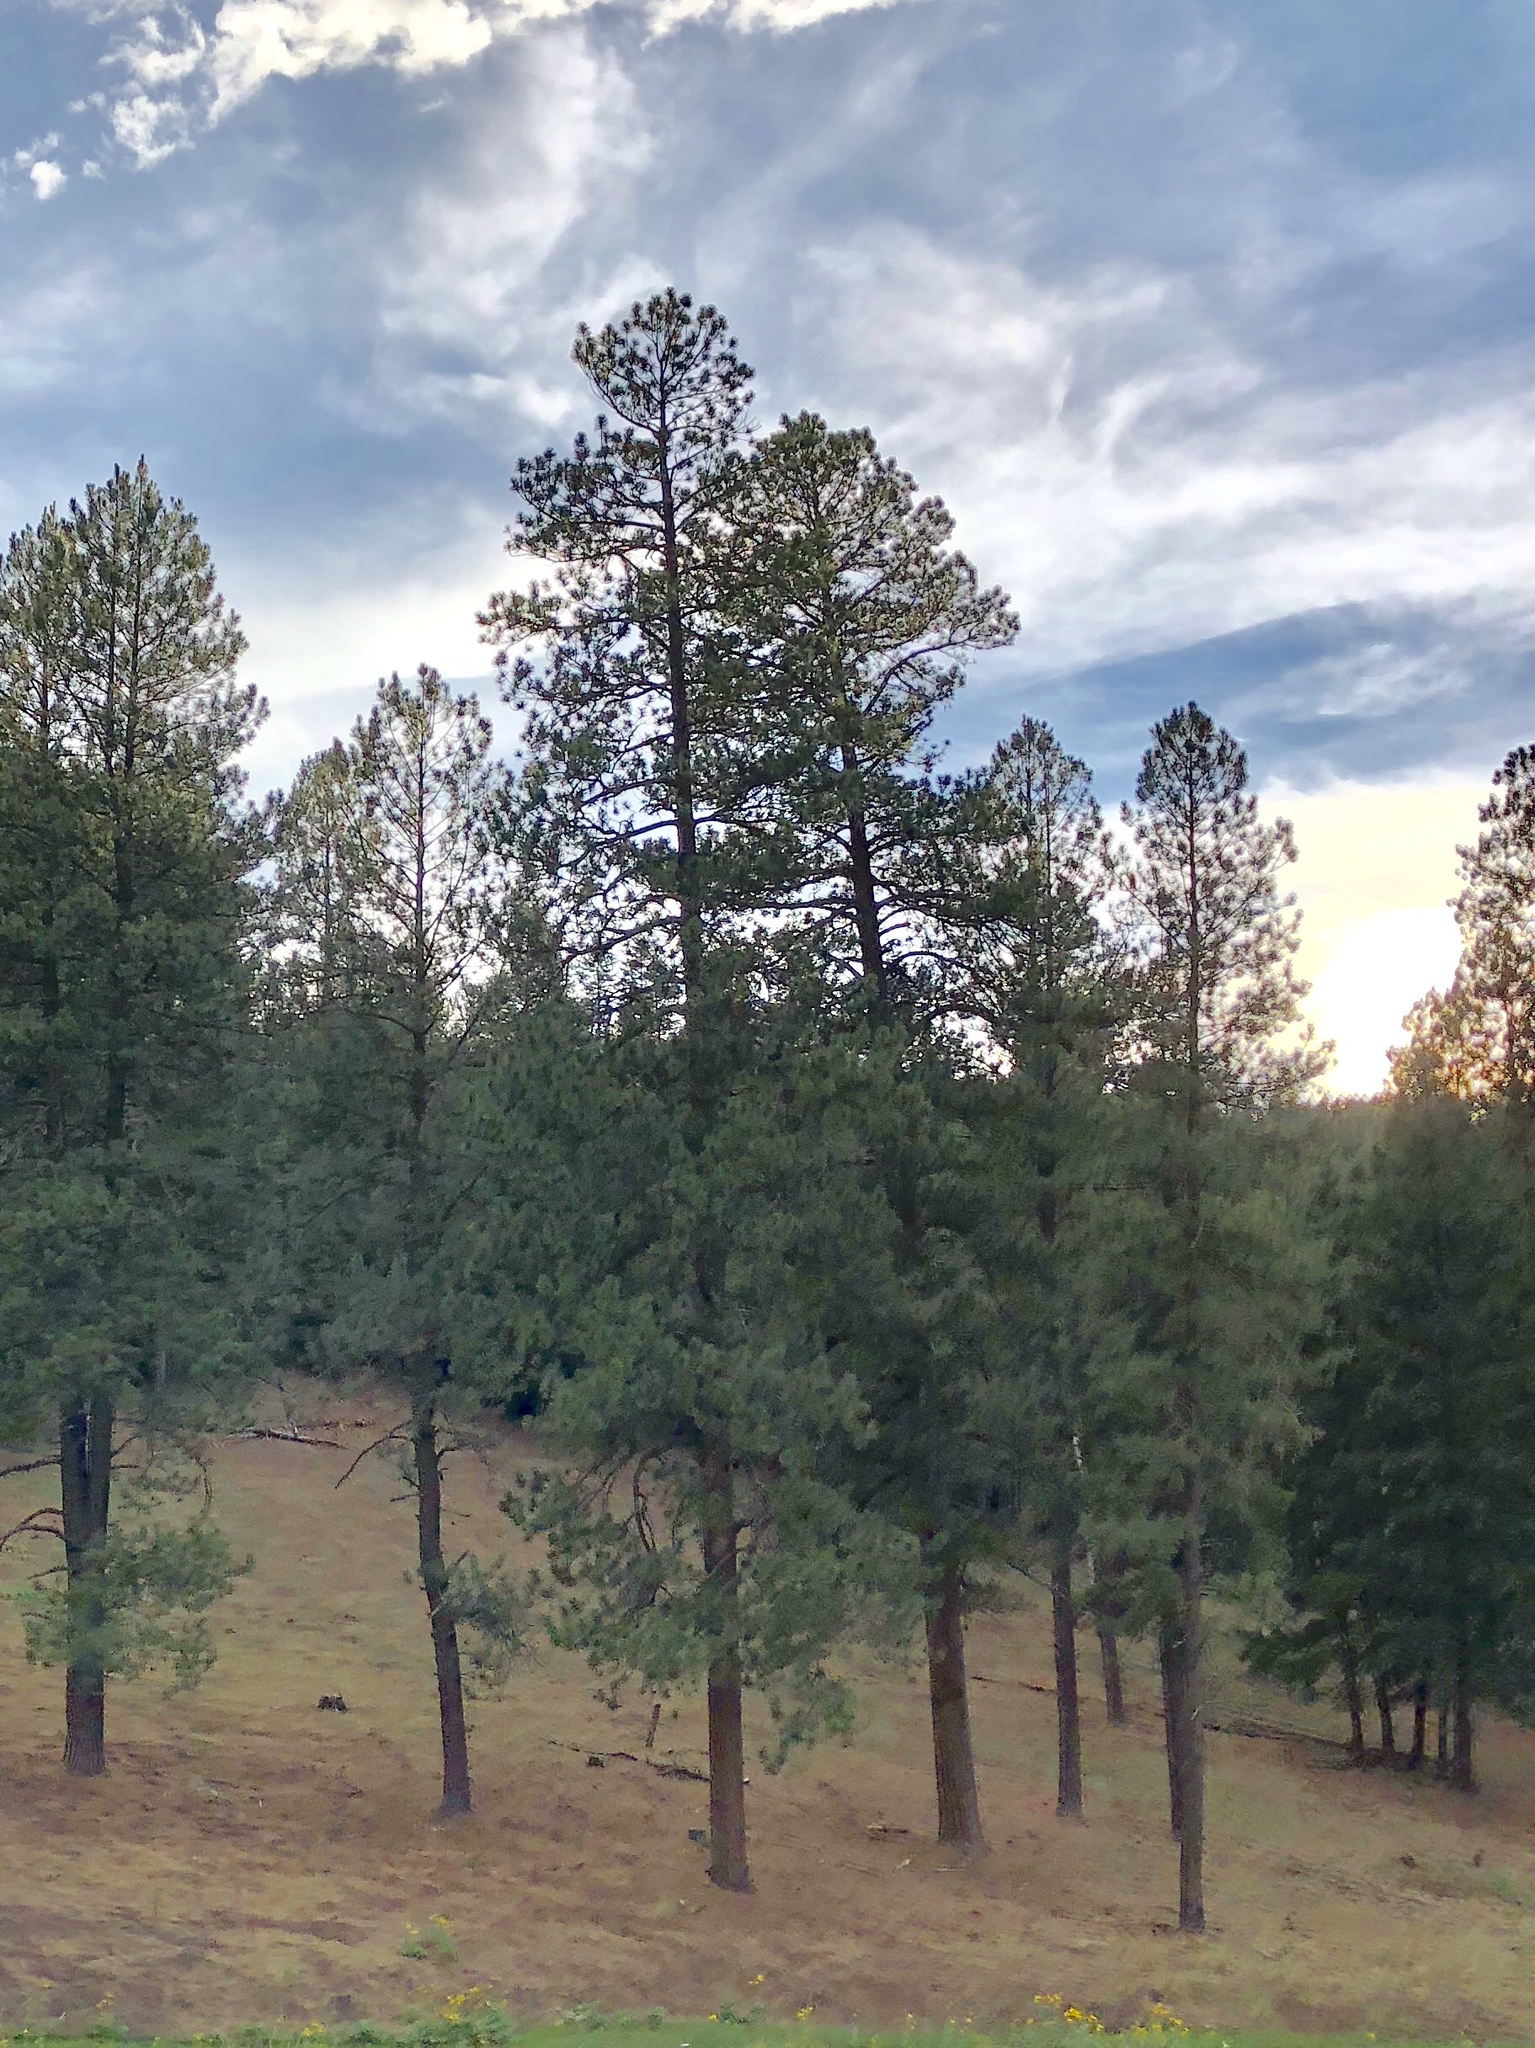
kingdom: Plantae
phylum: Tracheophyta
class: Pinopsida
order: Pinales
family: Pinaceae
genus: Pinus
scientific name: Pinus ponderosa
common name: Western yellow-pine
